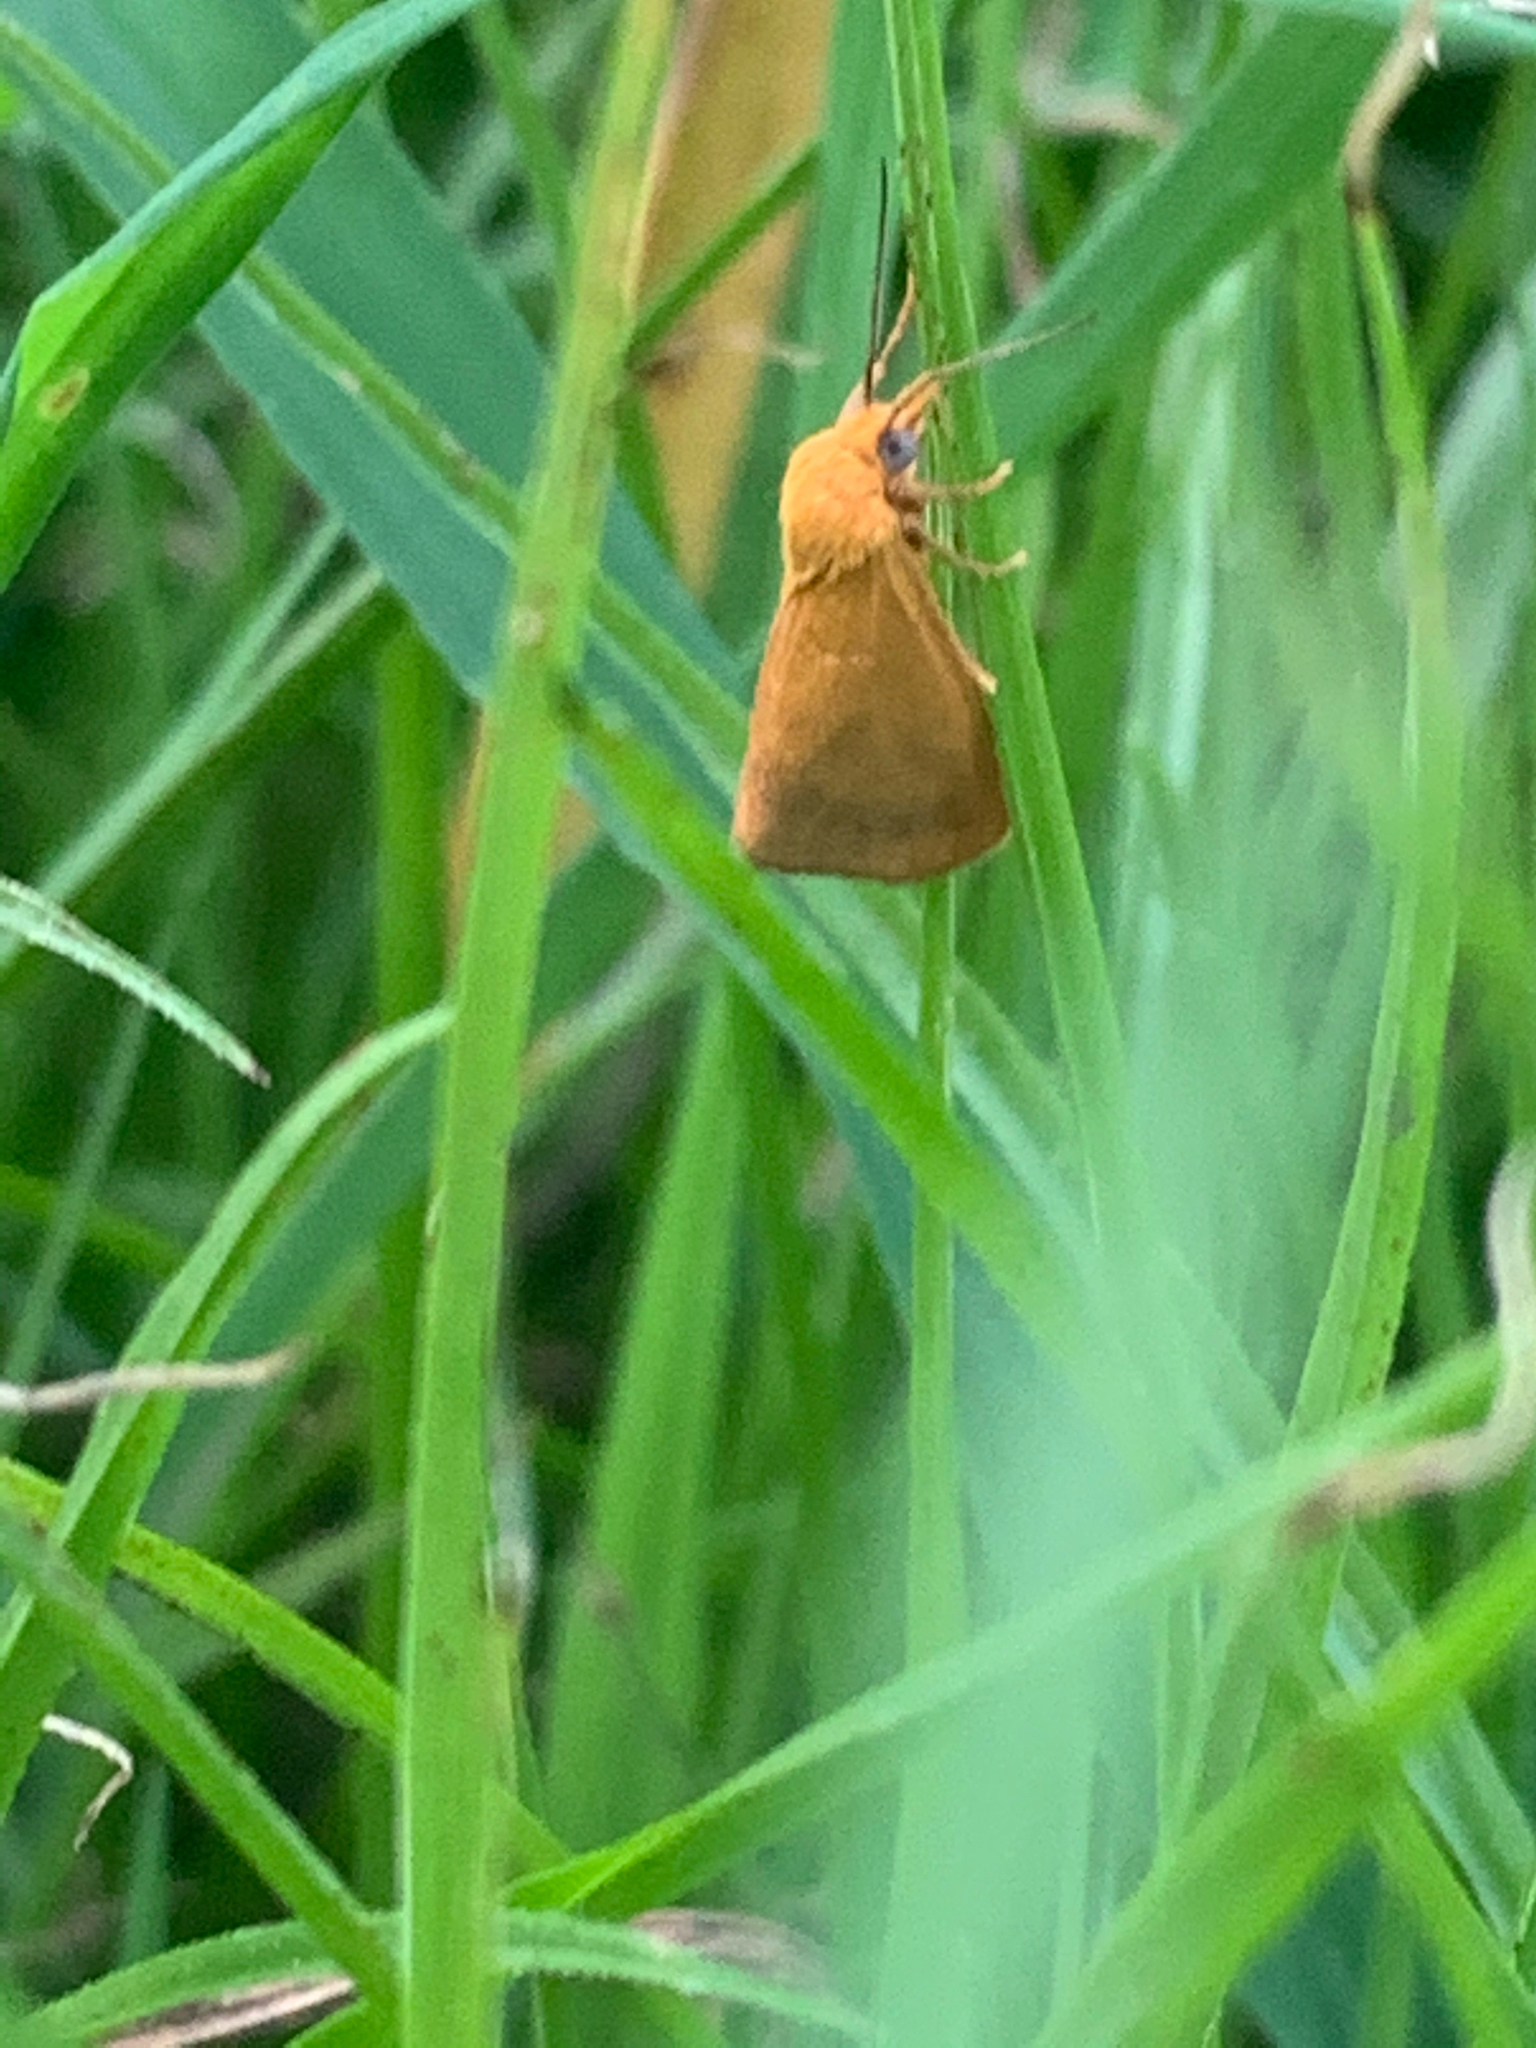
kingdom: Animalia
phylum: Arthropoda
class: Insecta
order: Lepidoptera
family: Erebidae
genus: Virbia
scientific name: Virbia aurantiaca
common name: Orange virbia moth
